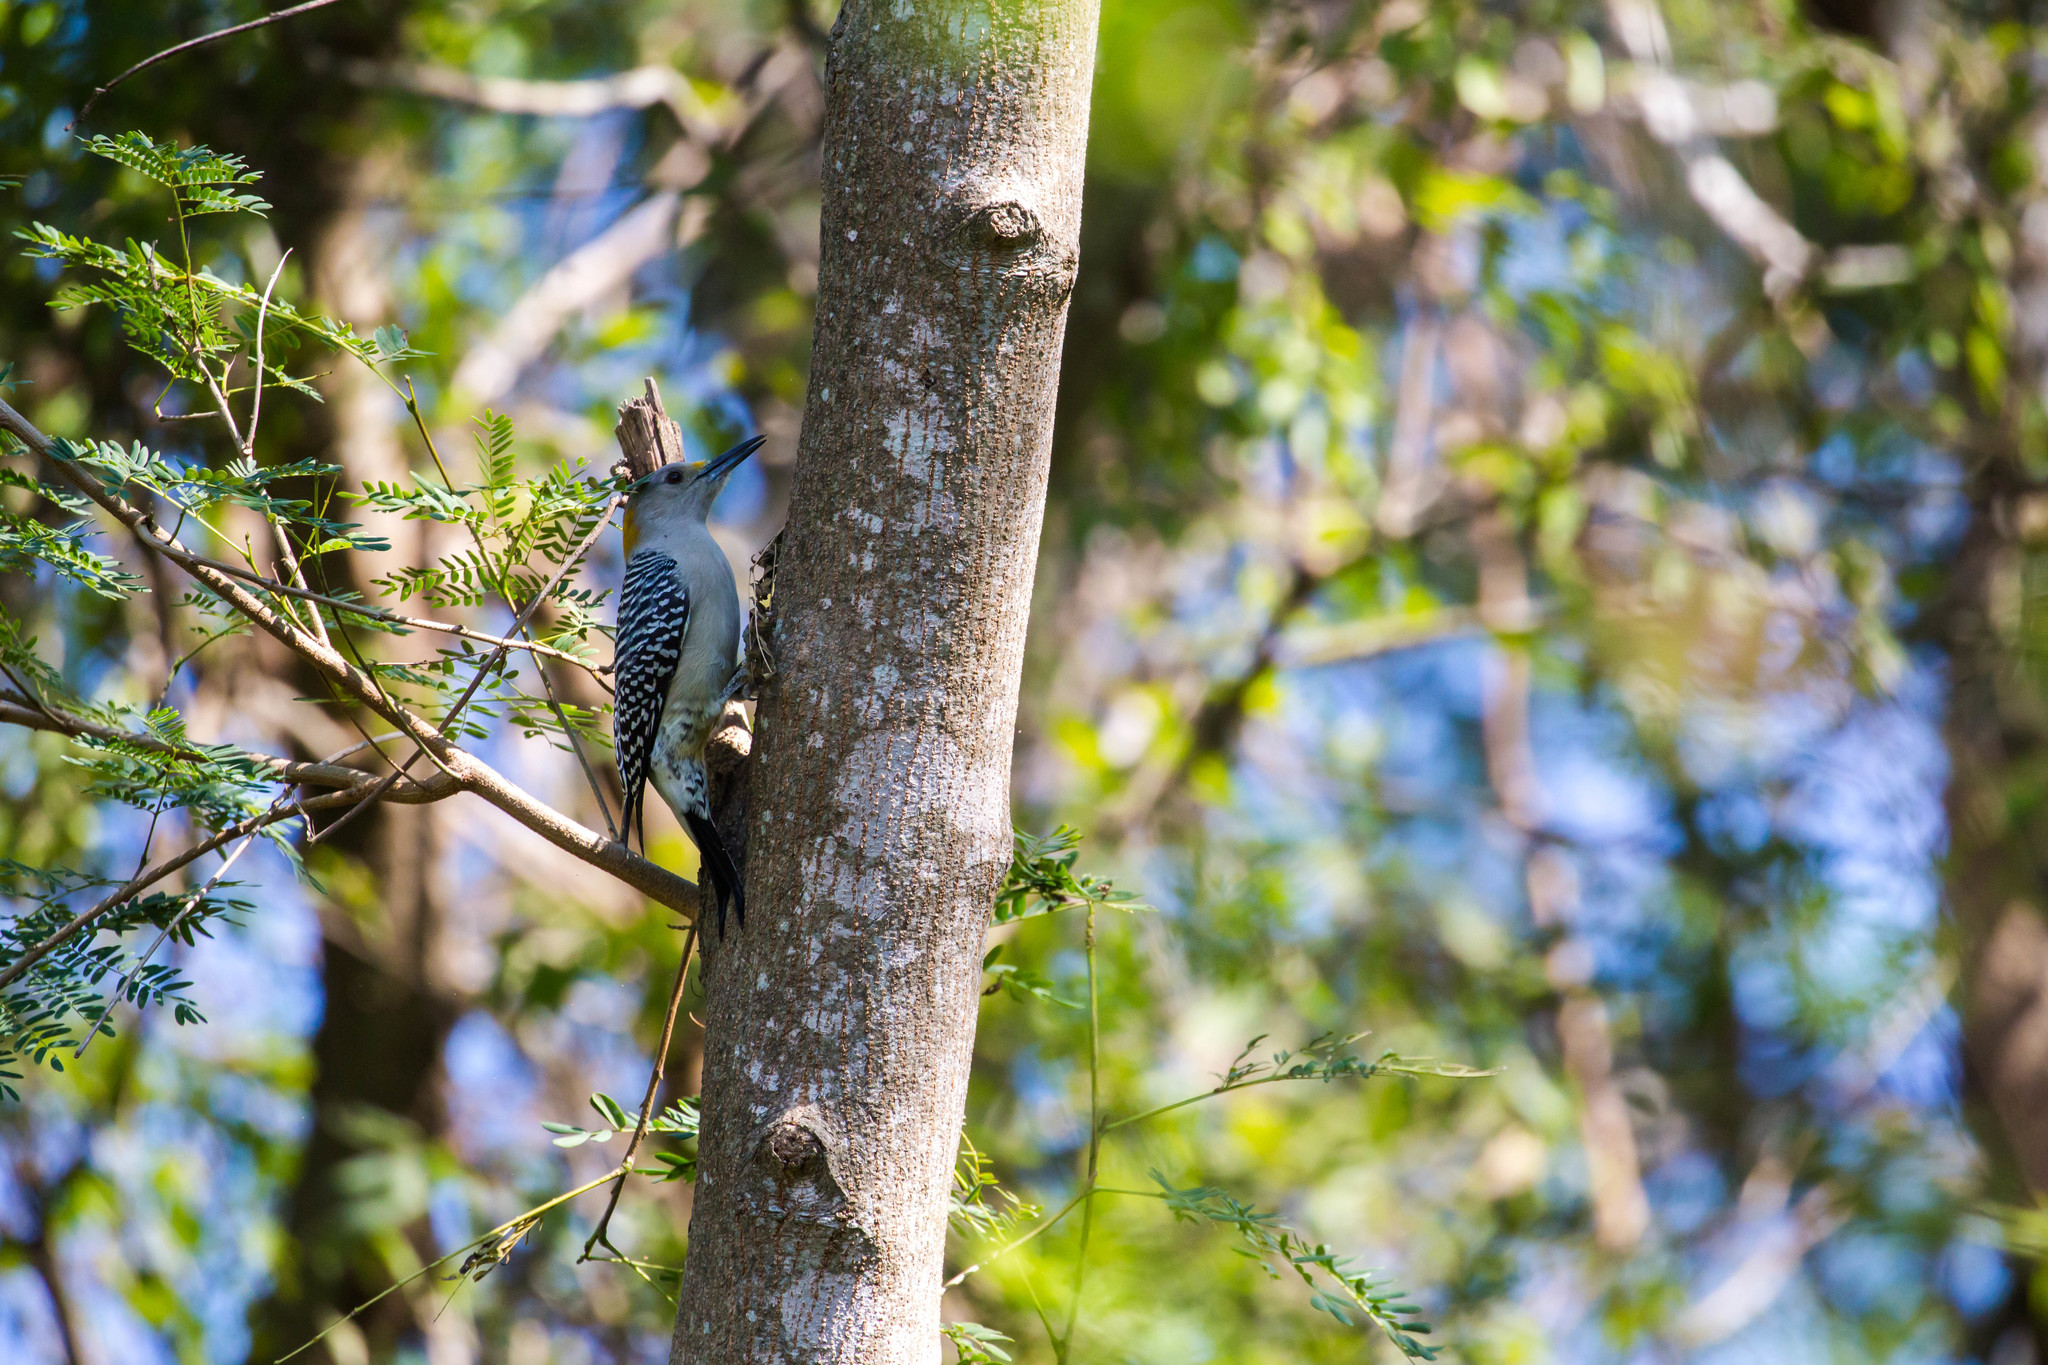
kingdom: Animalia
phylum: Chordata
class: Aves
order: Piciformes
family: Picidae
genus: Melanerpes
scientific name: Melanerpes aurifrons
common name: Golden-fronted woodpecker
